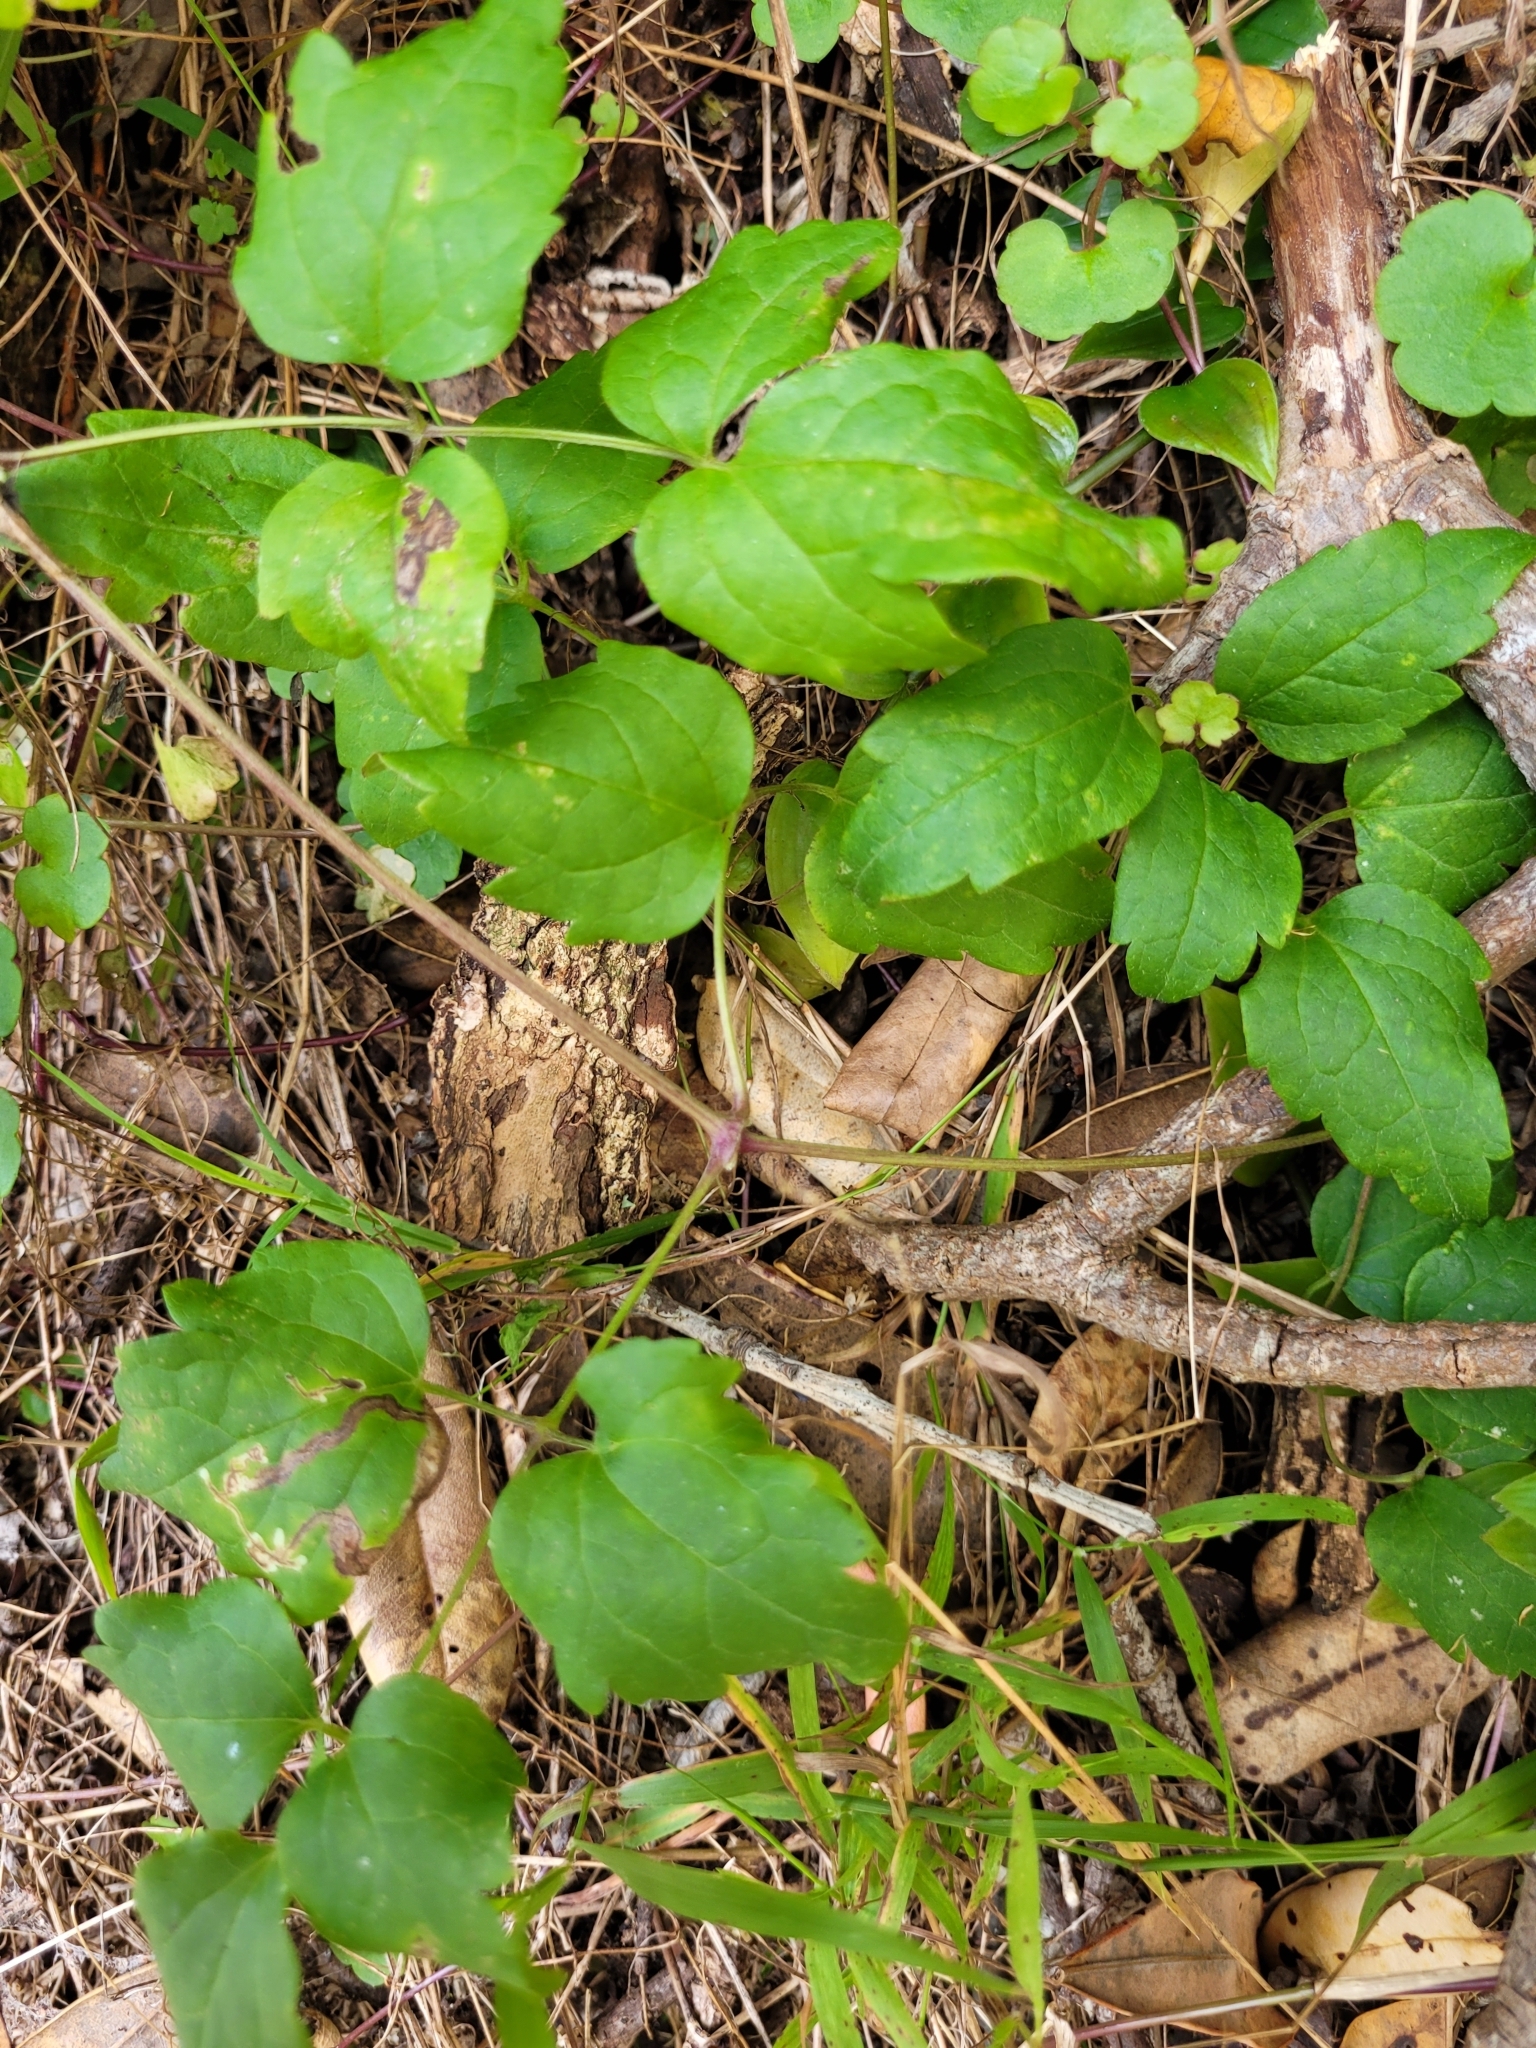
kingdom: Plantae
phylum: Tracheophyta
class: Magnoliopsida
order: Ranunculales
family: Ranunculaceae
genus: Clematis
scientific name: Clematis vitalba
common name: Evergreen clematis
